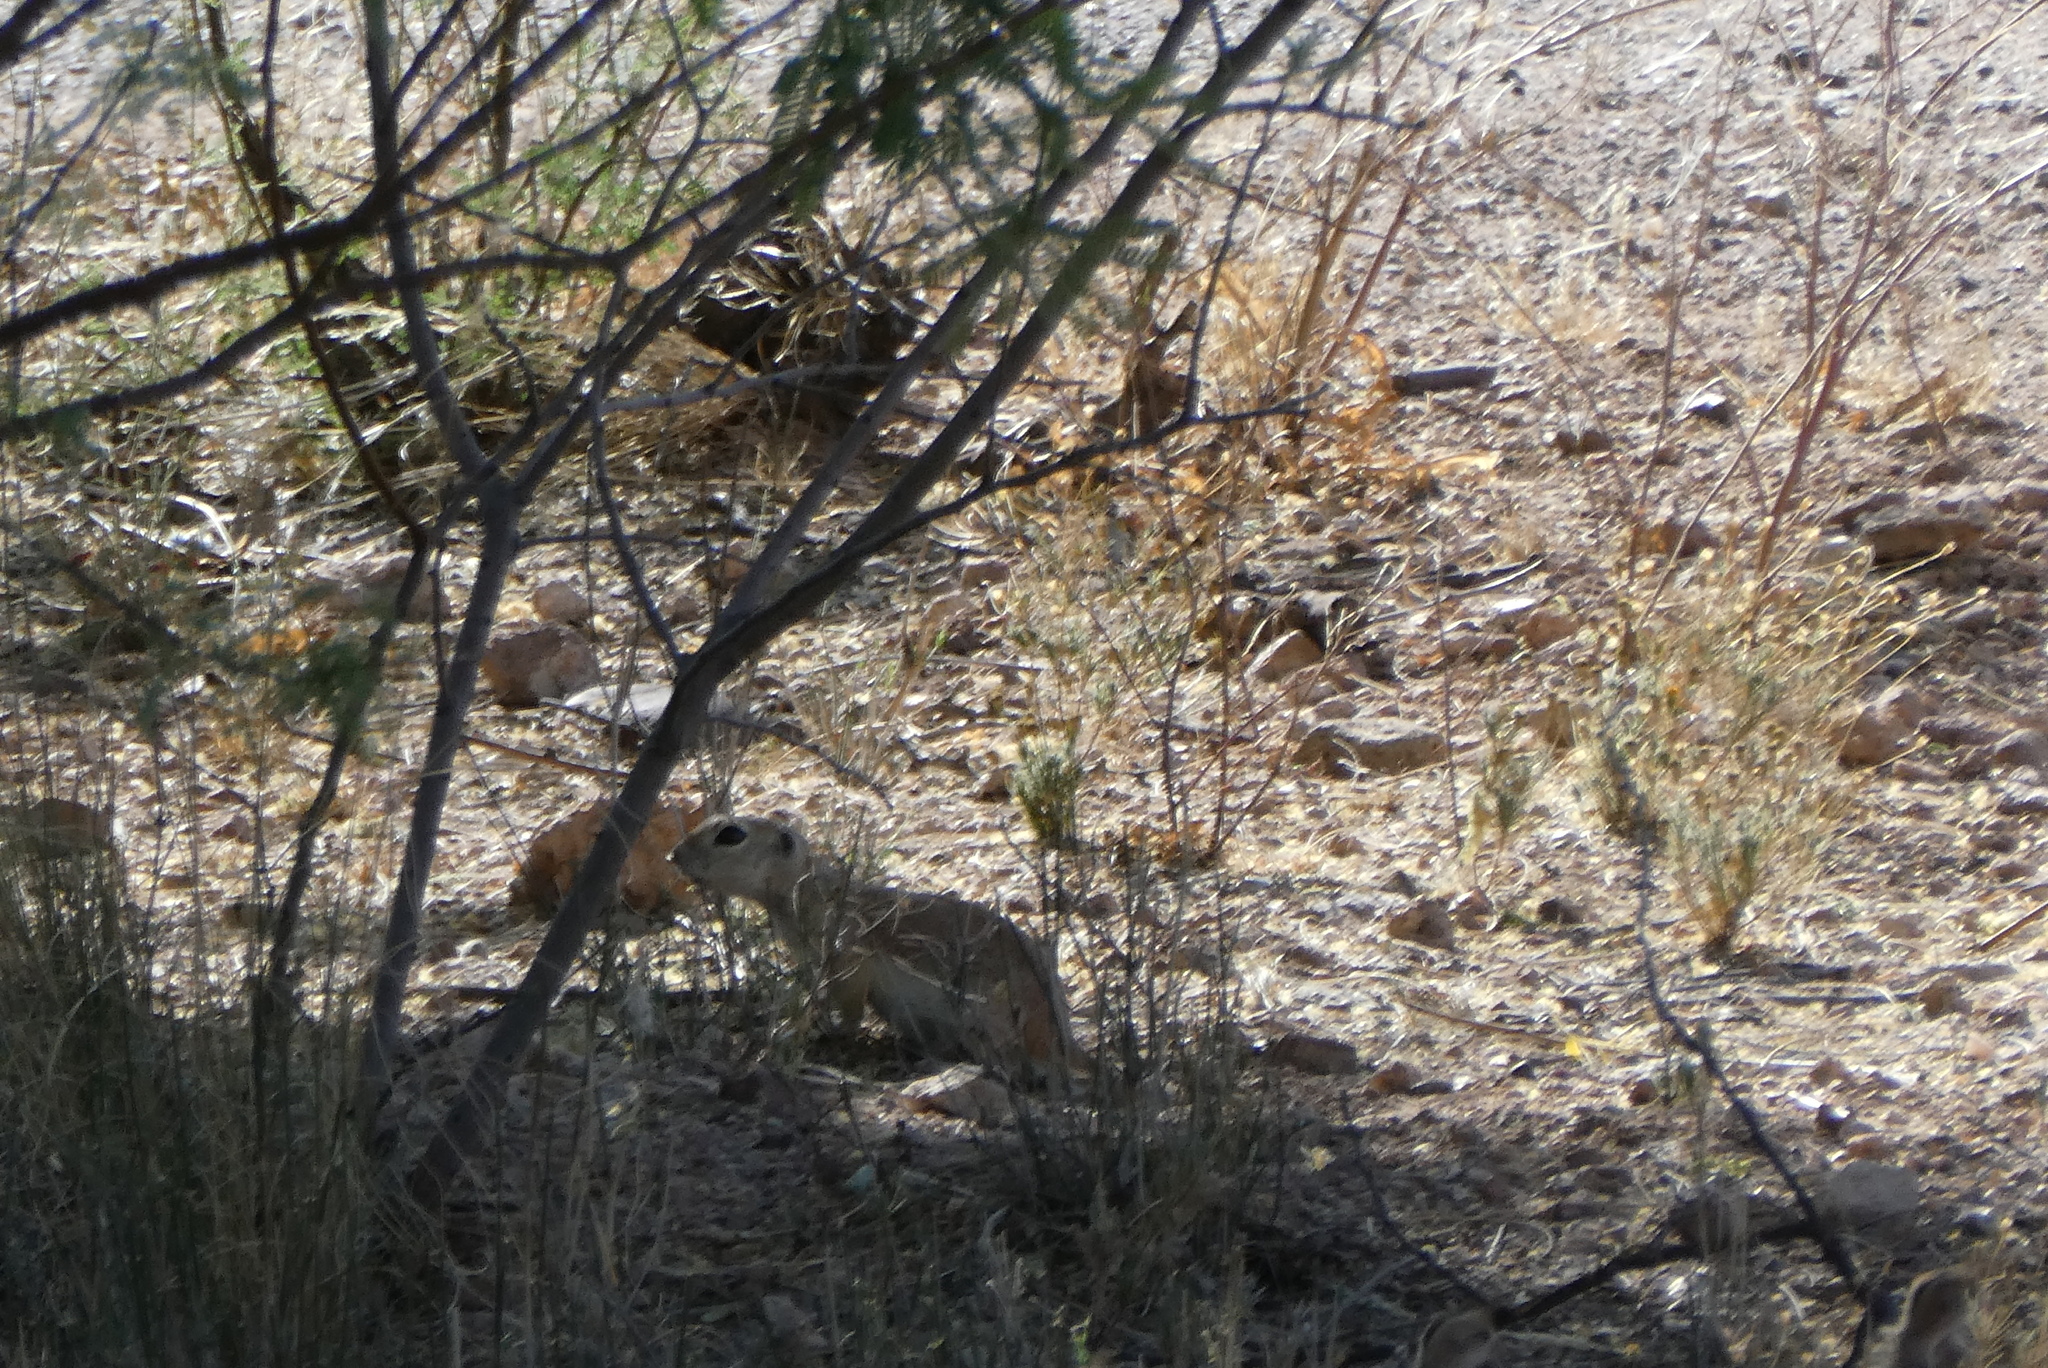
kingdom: Animalia
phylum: Chordata
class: Mammalia
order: Rodentia
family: Sciuridae
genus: Xerospermophilus
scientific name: Xerospermophilus tereticaudus
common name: Round-tailed ground squirrel
